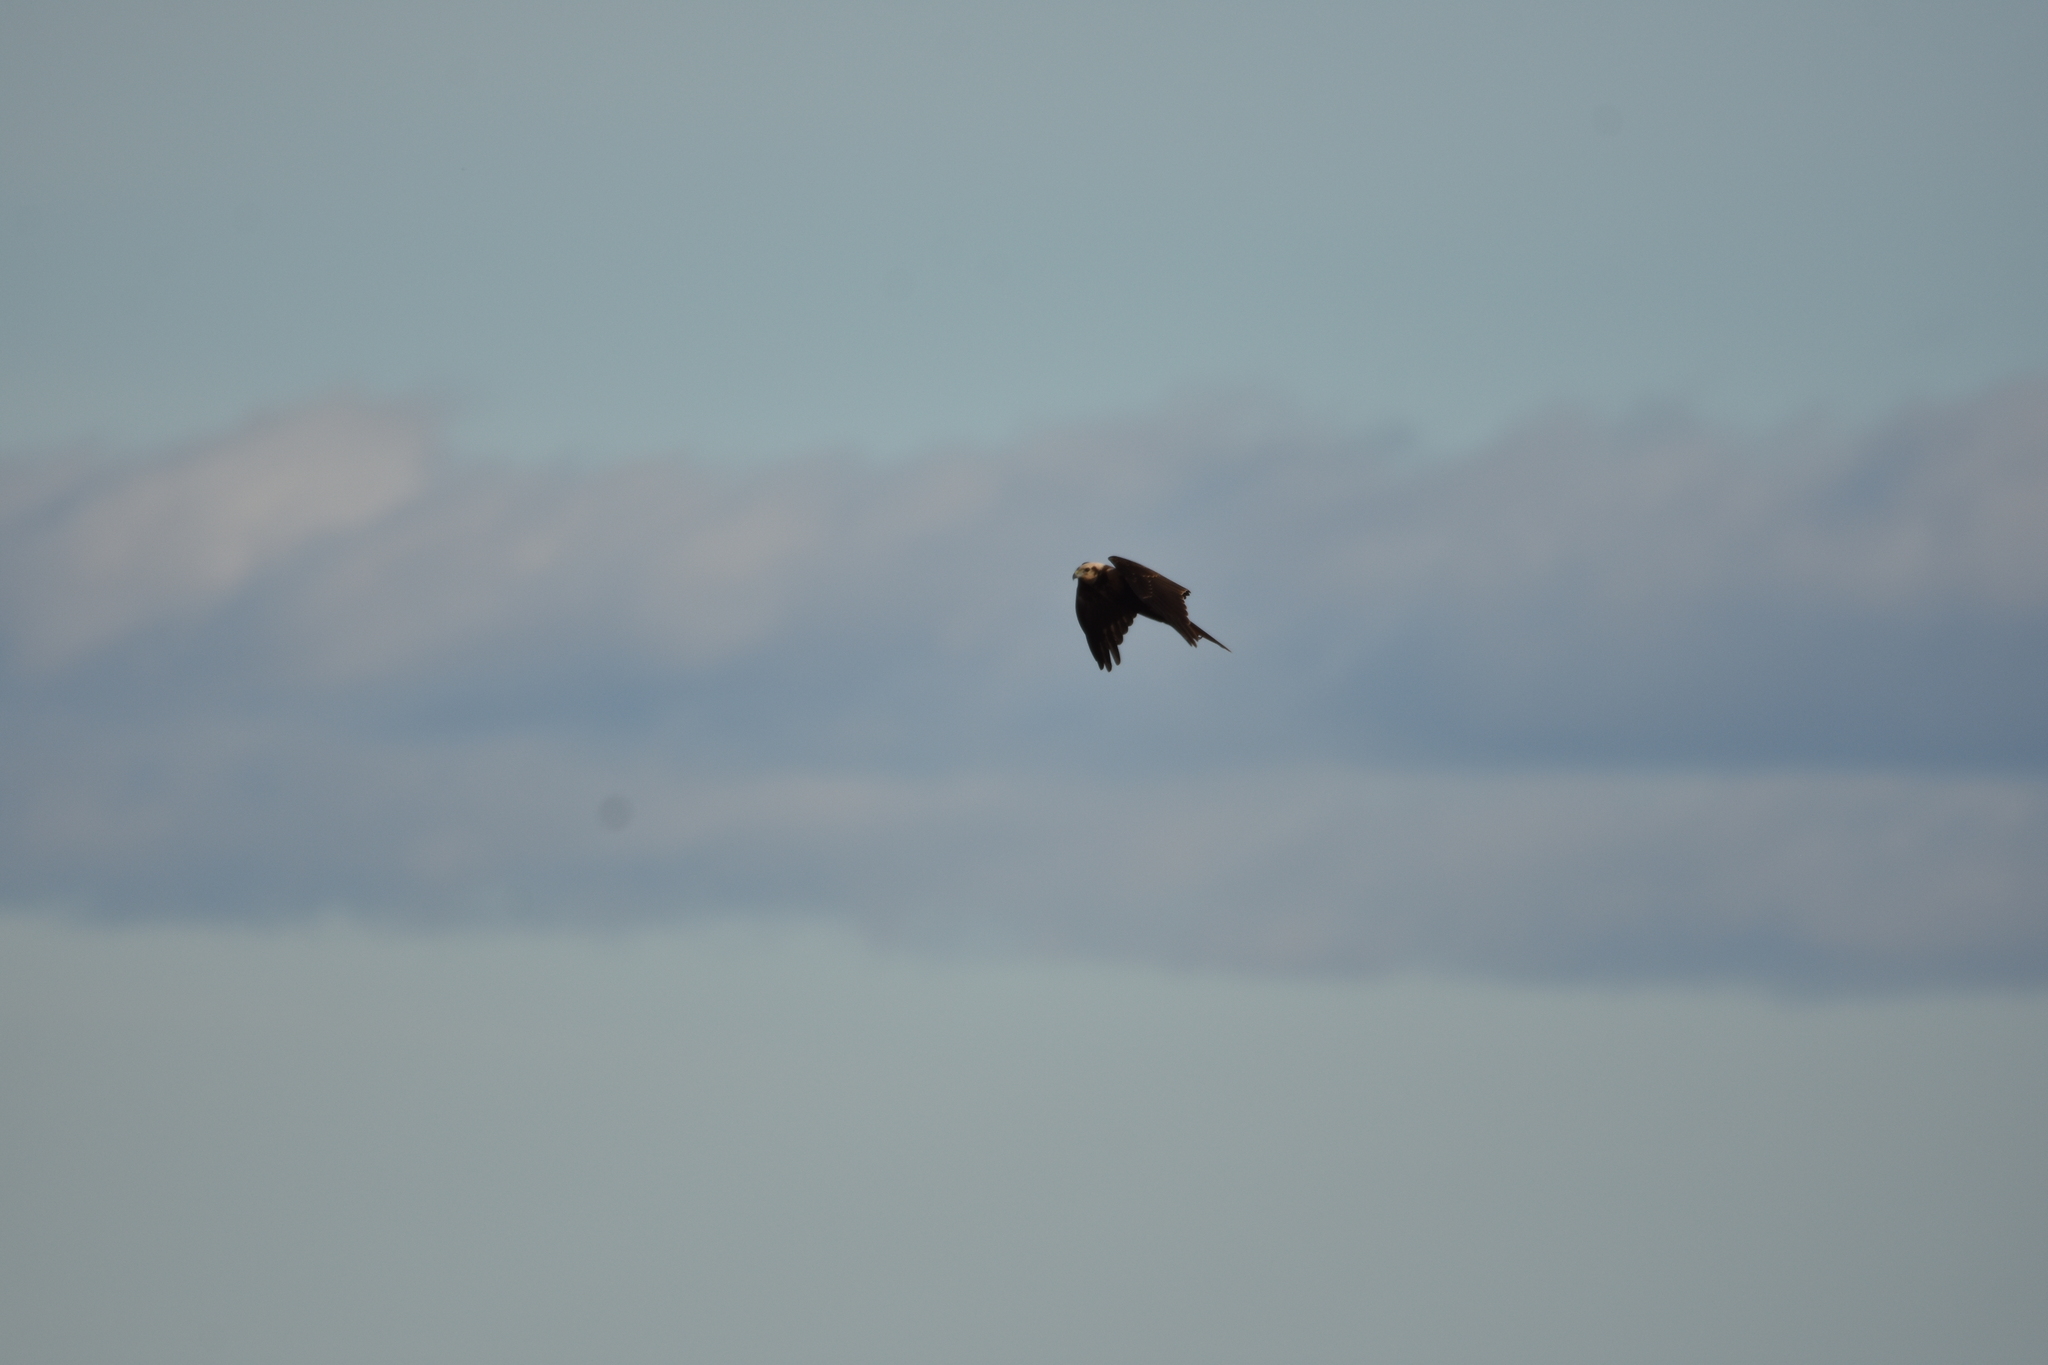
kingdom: Animalia
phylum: Chordata
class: Aves
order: Accipitriformes
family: Accipitridae
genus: Circus
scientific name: Circus aeruginosus
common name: Western marsh harrier
